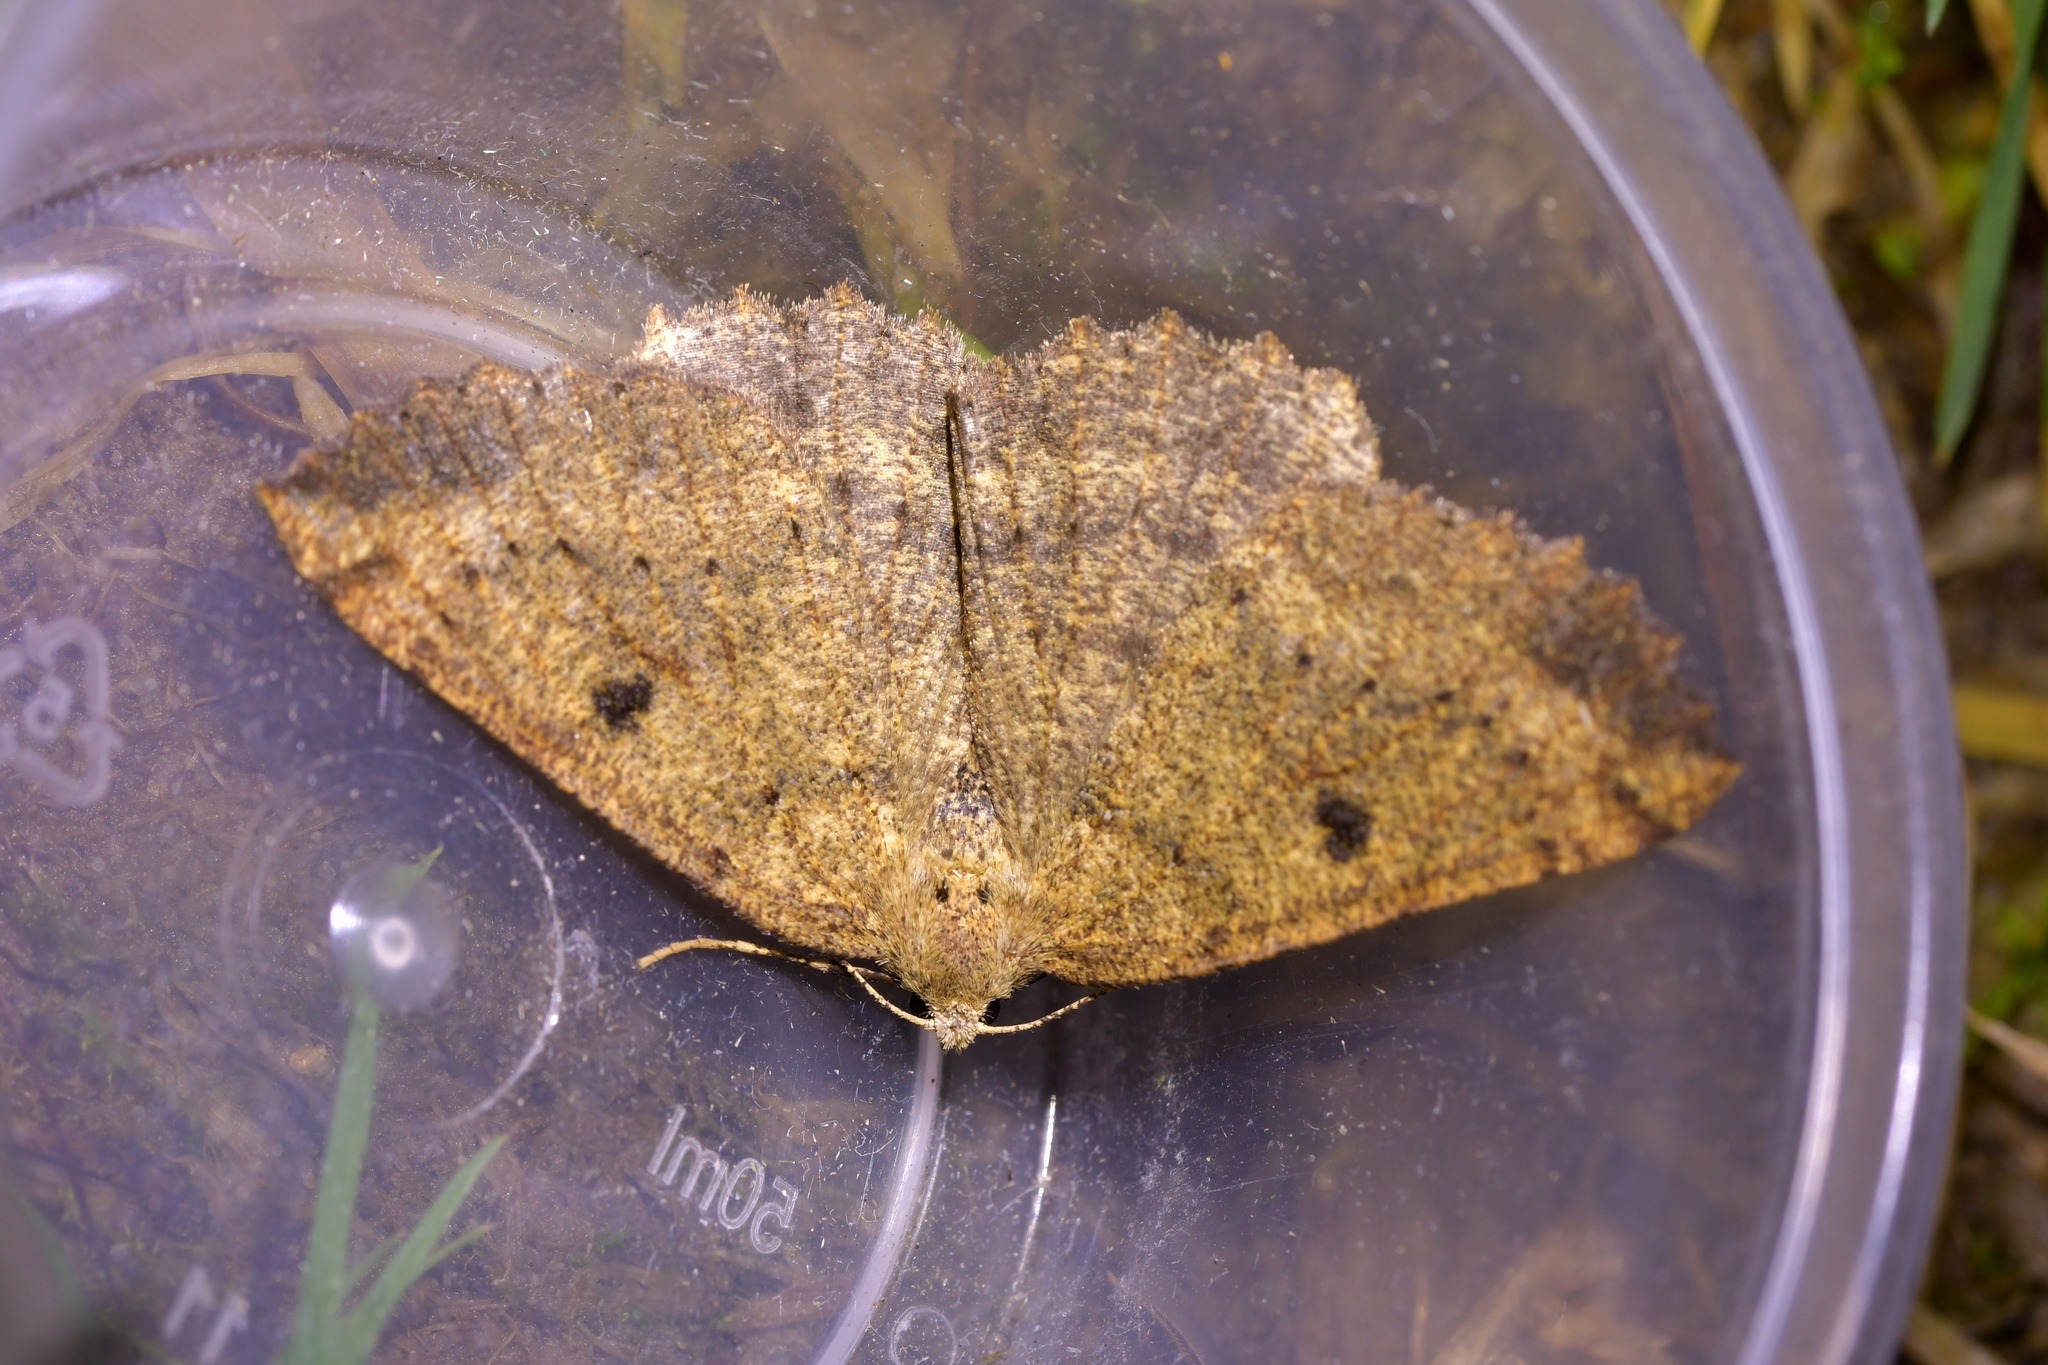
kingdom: Animalia
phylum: Arthropoda
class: Insecta
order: Lepidoptera
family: Geometridae
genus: Cleora
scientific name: Cleora scriptaria
